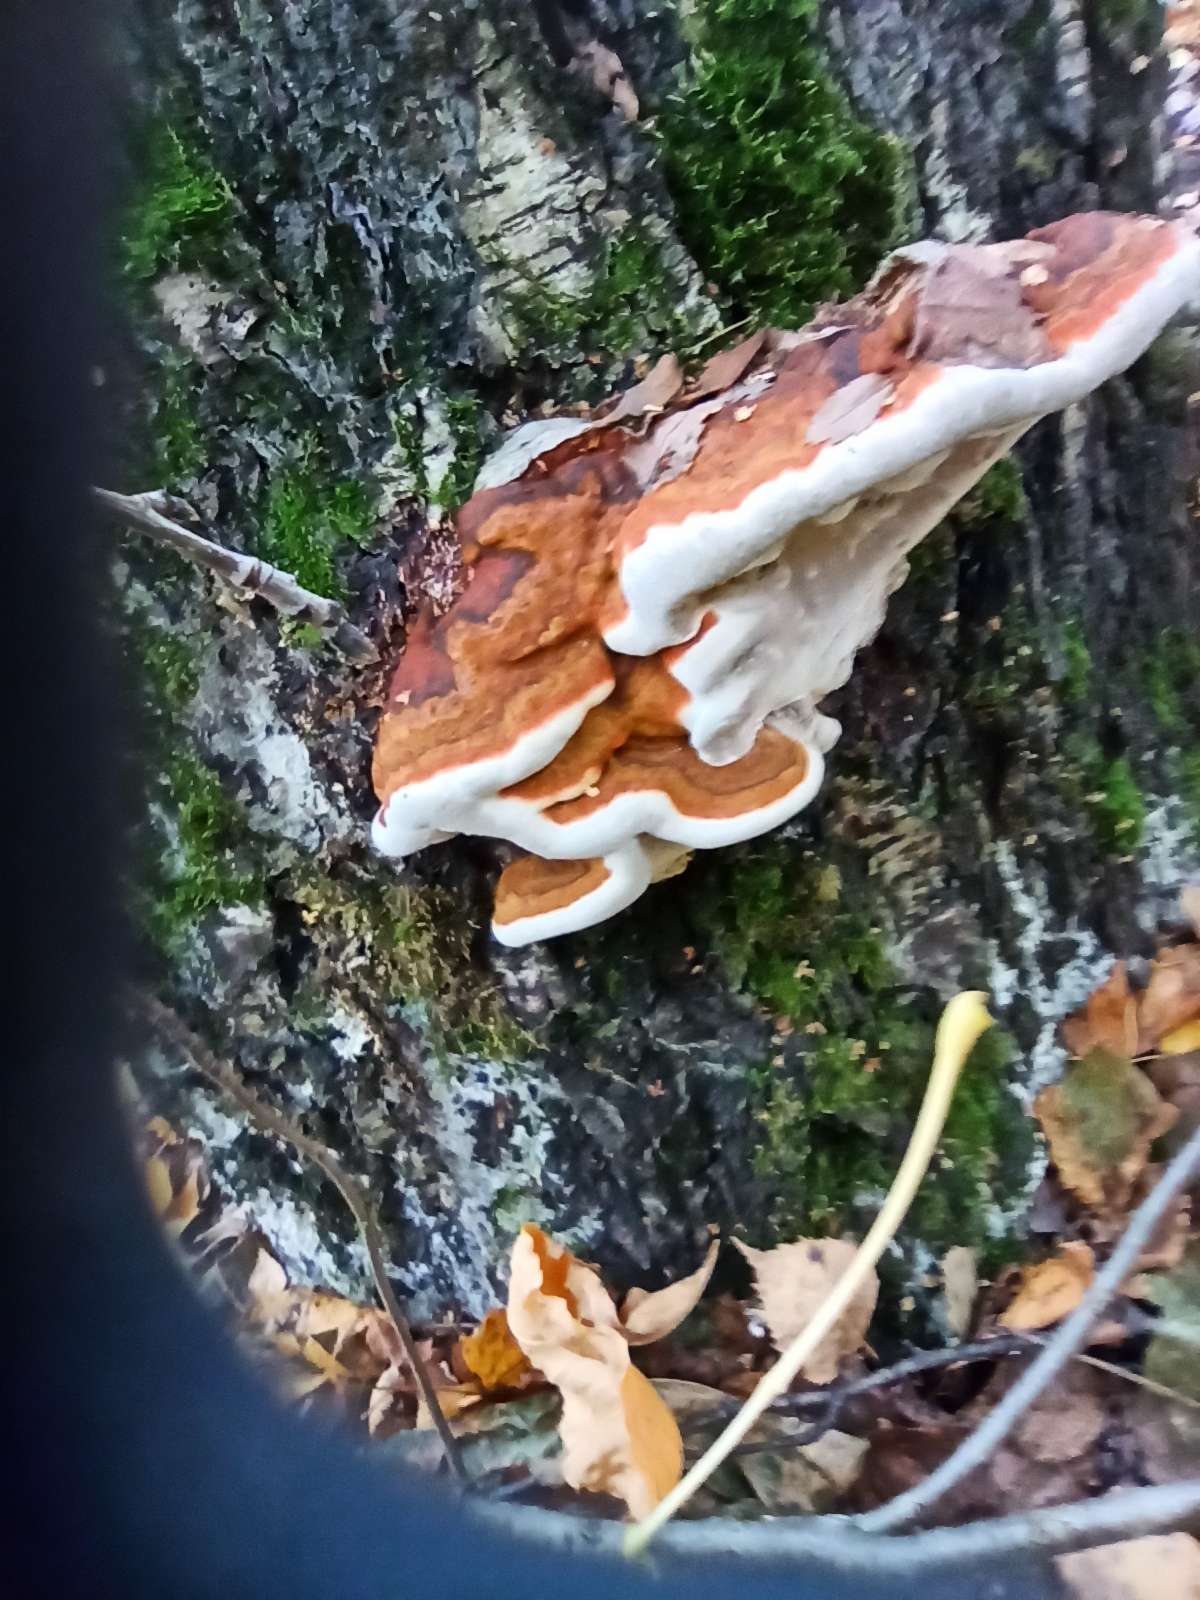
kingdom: Fungi
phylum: Basidiomycota
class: Agaricomycetes
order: Polyporales
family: Fomitopsidaceae
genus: Fomitopsis
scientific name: Fomitopsis pinicola
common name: Red-belted bracket
